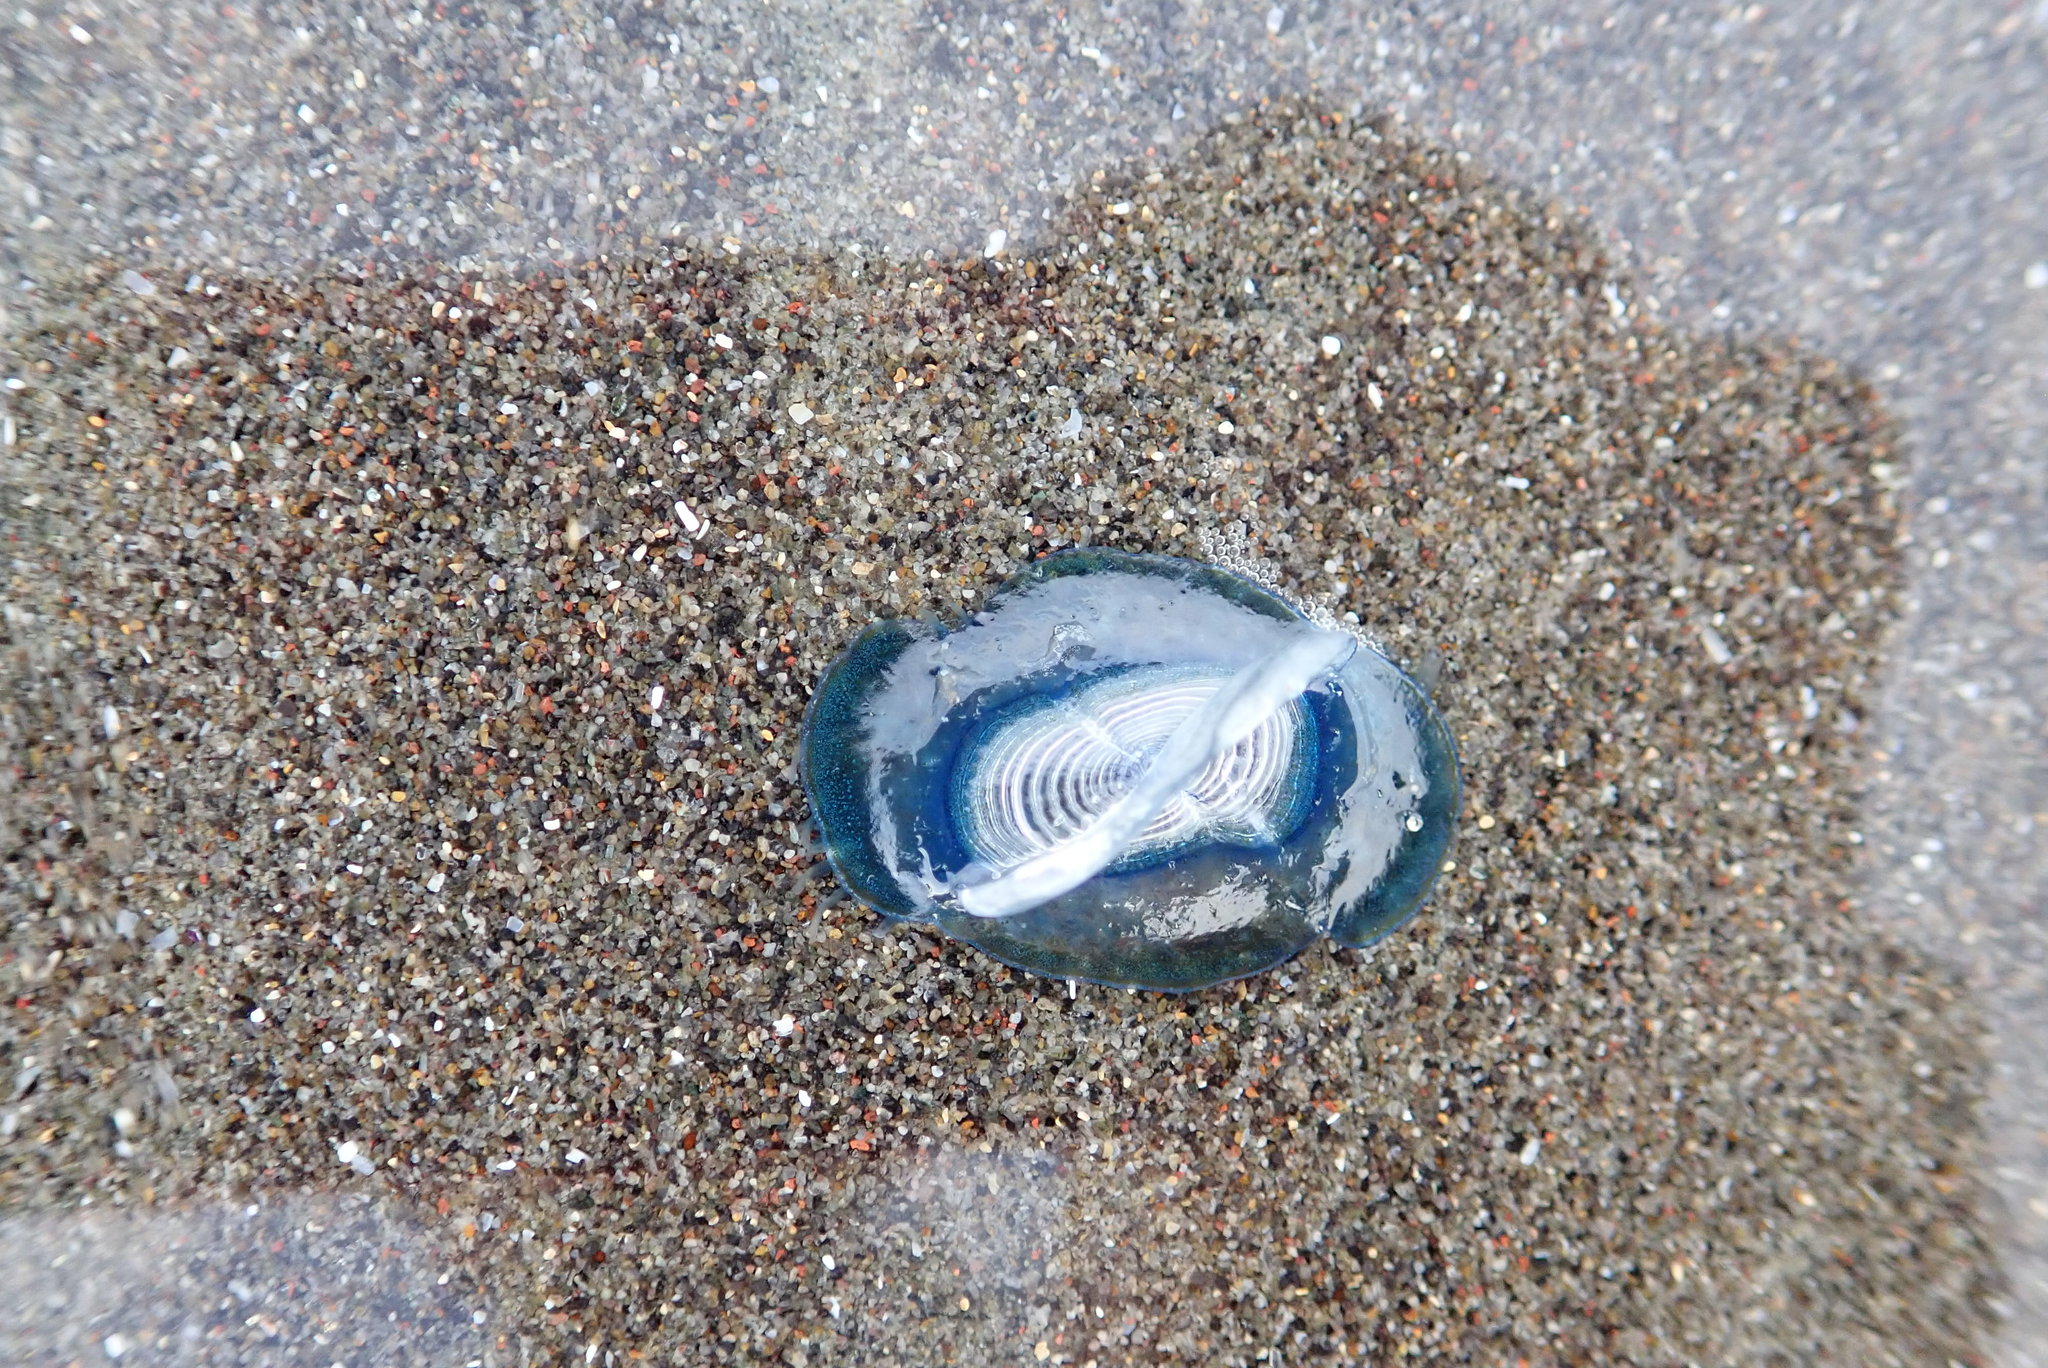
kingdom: Animalia
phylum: Cnidaria
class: Hydrozoa
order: Anthoathecata
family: Porpitidae
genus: Velella
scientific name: Velella velella
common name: By-the-wind-sailor
